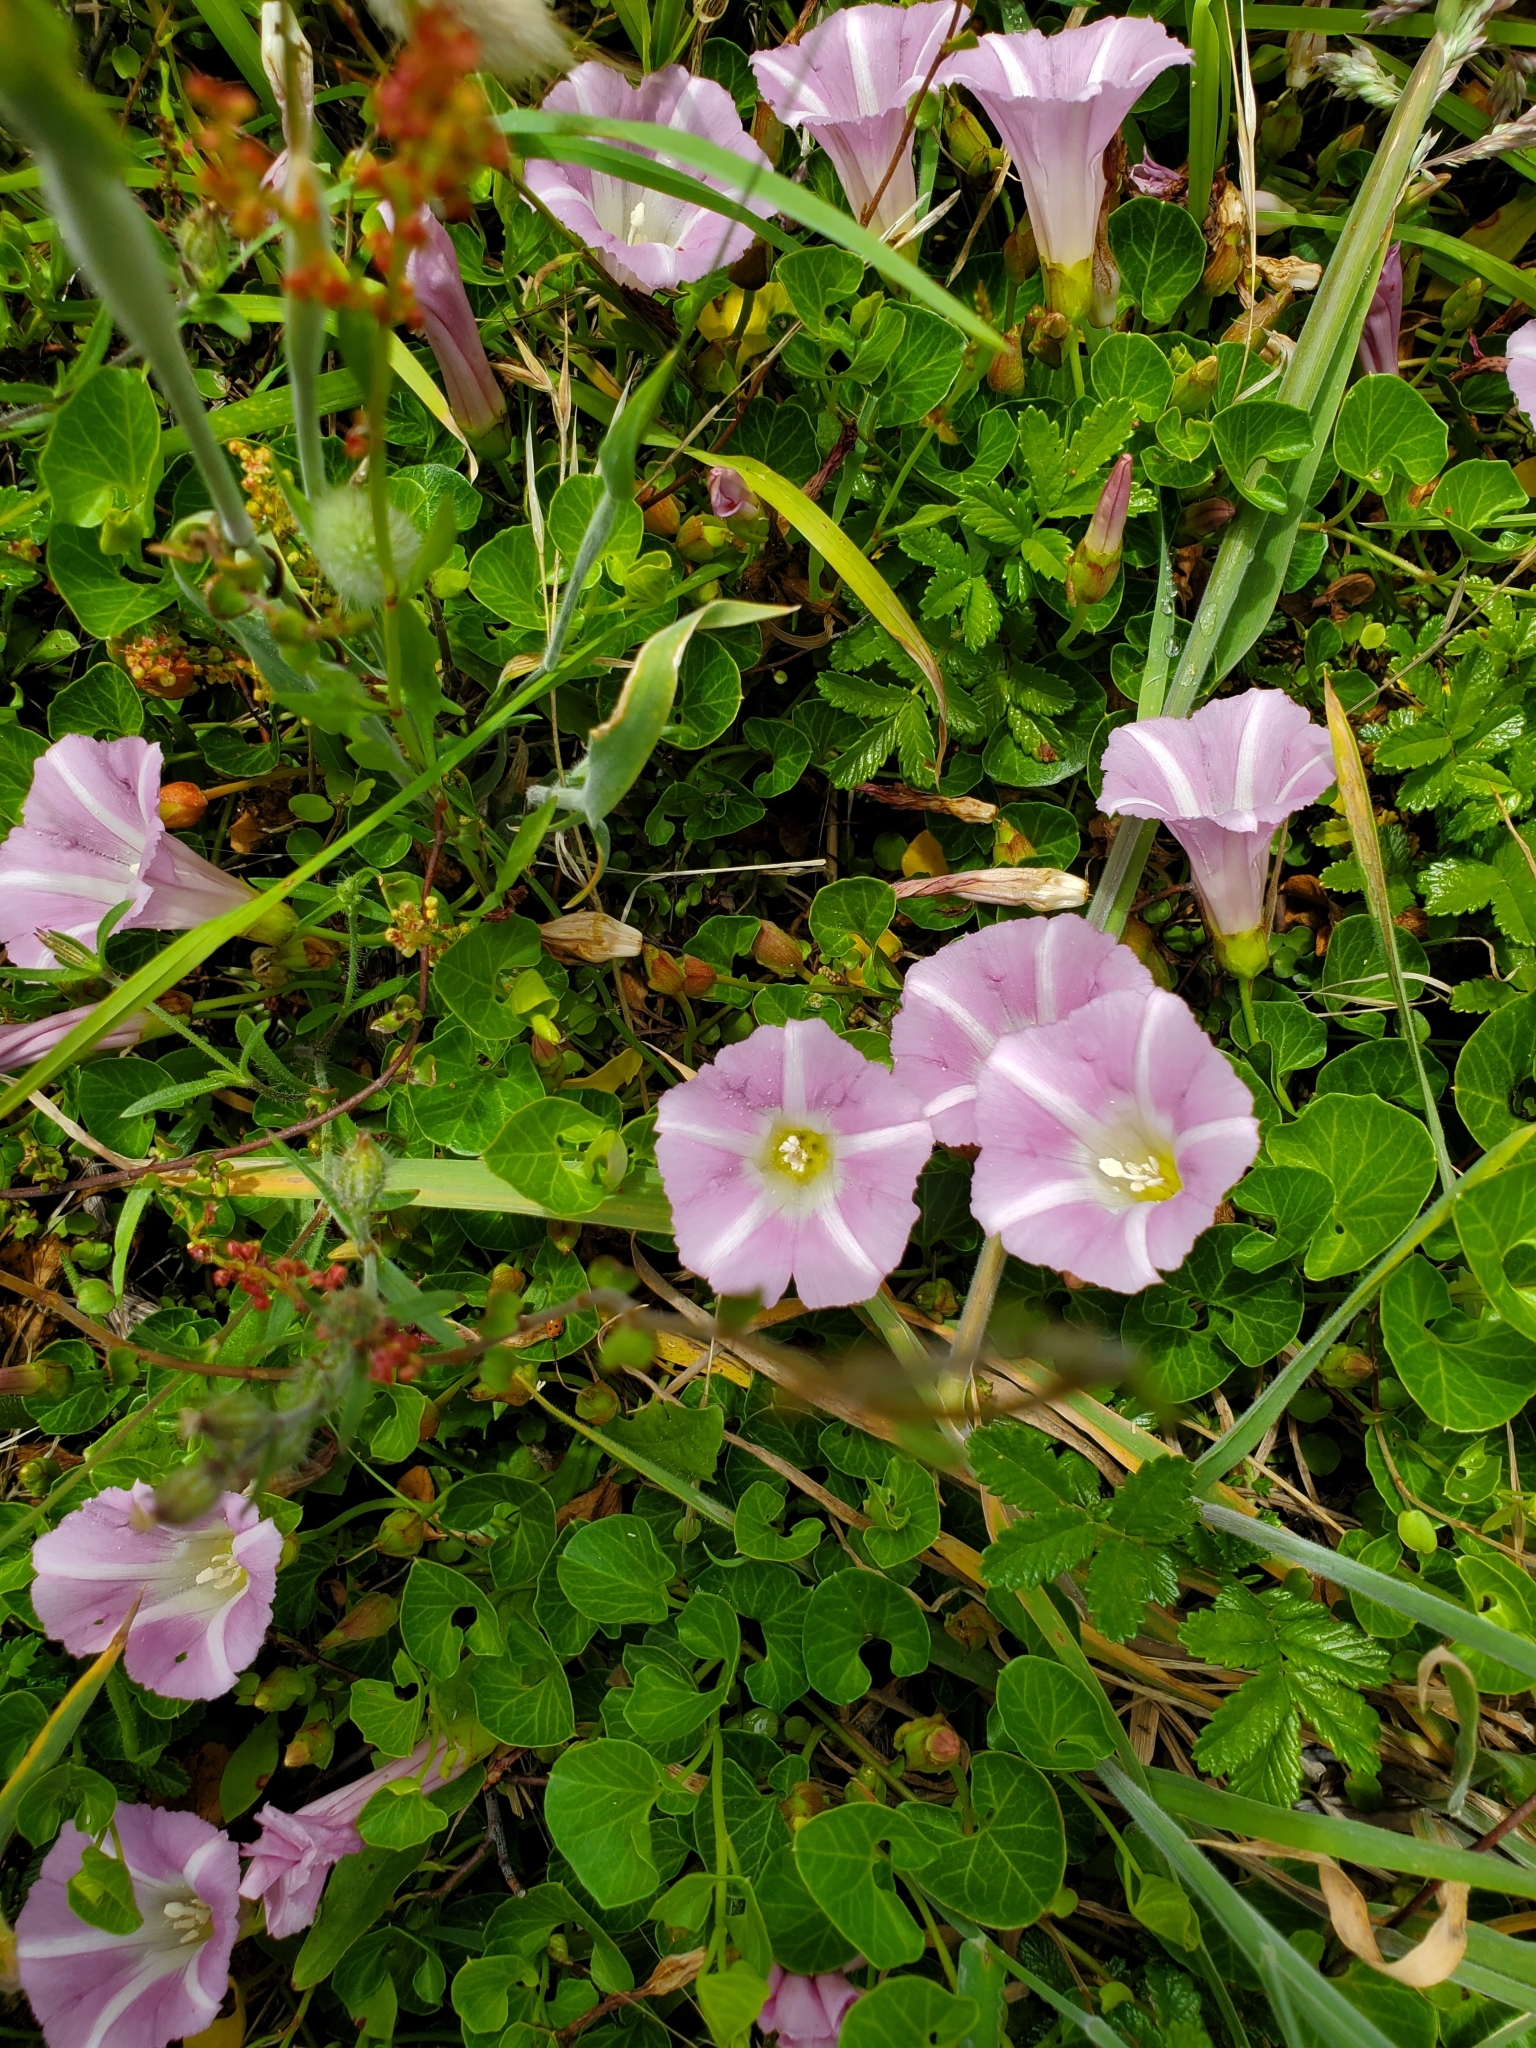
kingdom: Plantae
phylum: Tracheophyta
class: Magnoliopsida
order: Solanales
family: Convolvulaceae
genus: Calystegia
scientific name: Calystegia soldanella
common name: Sea bindweed
